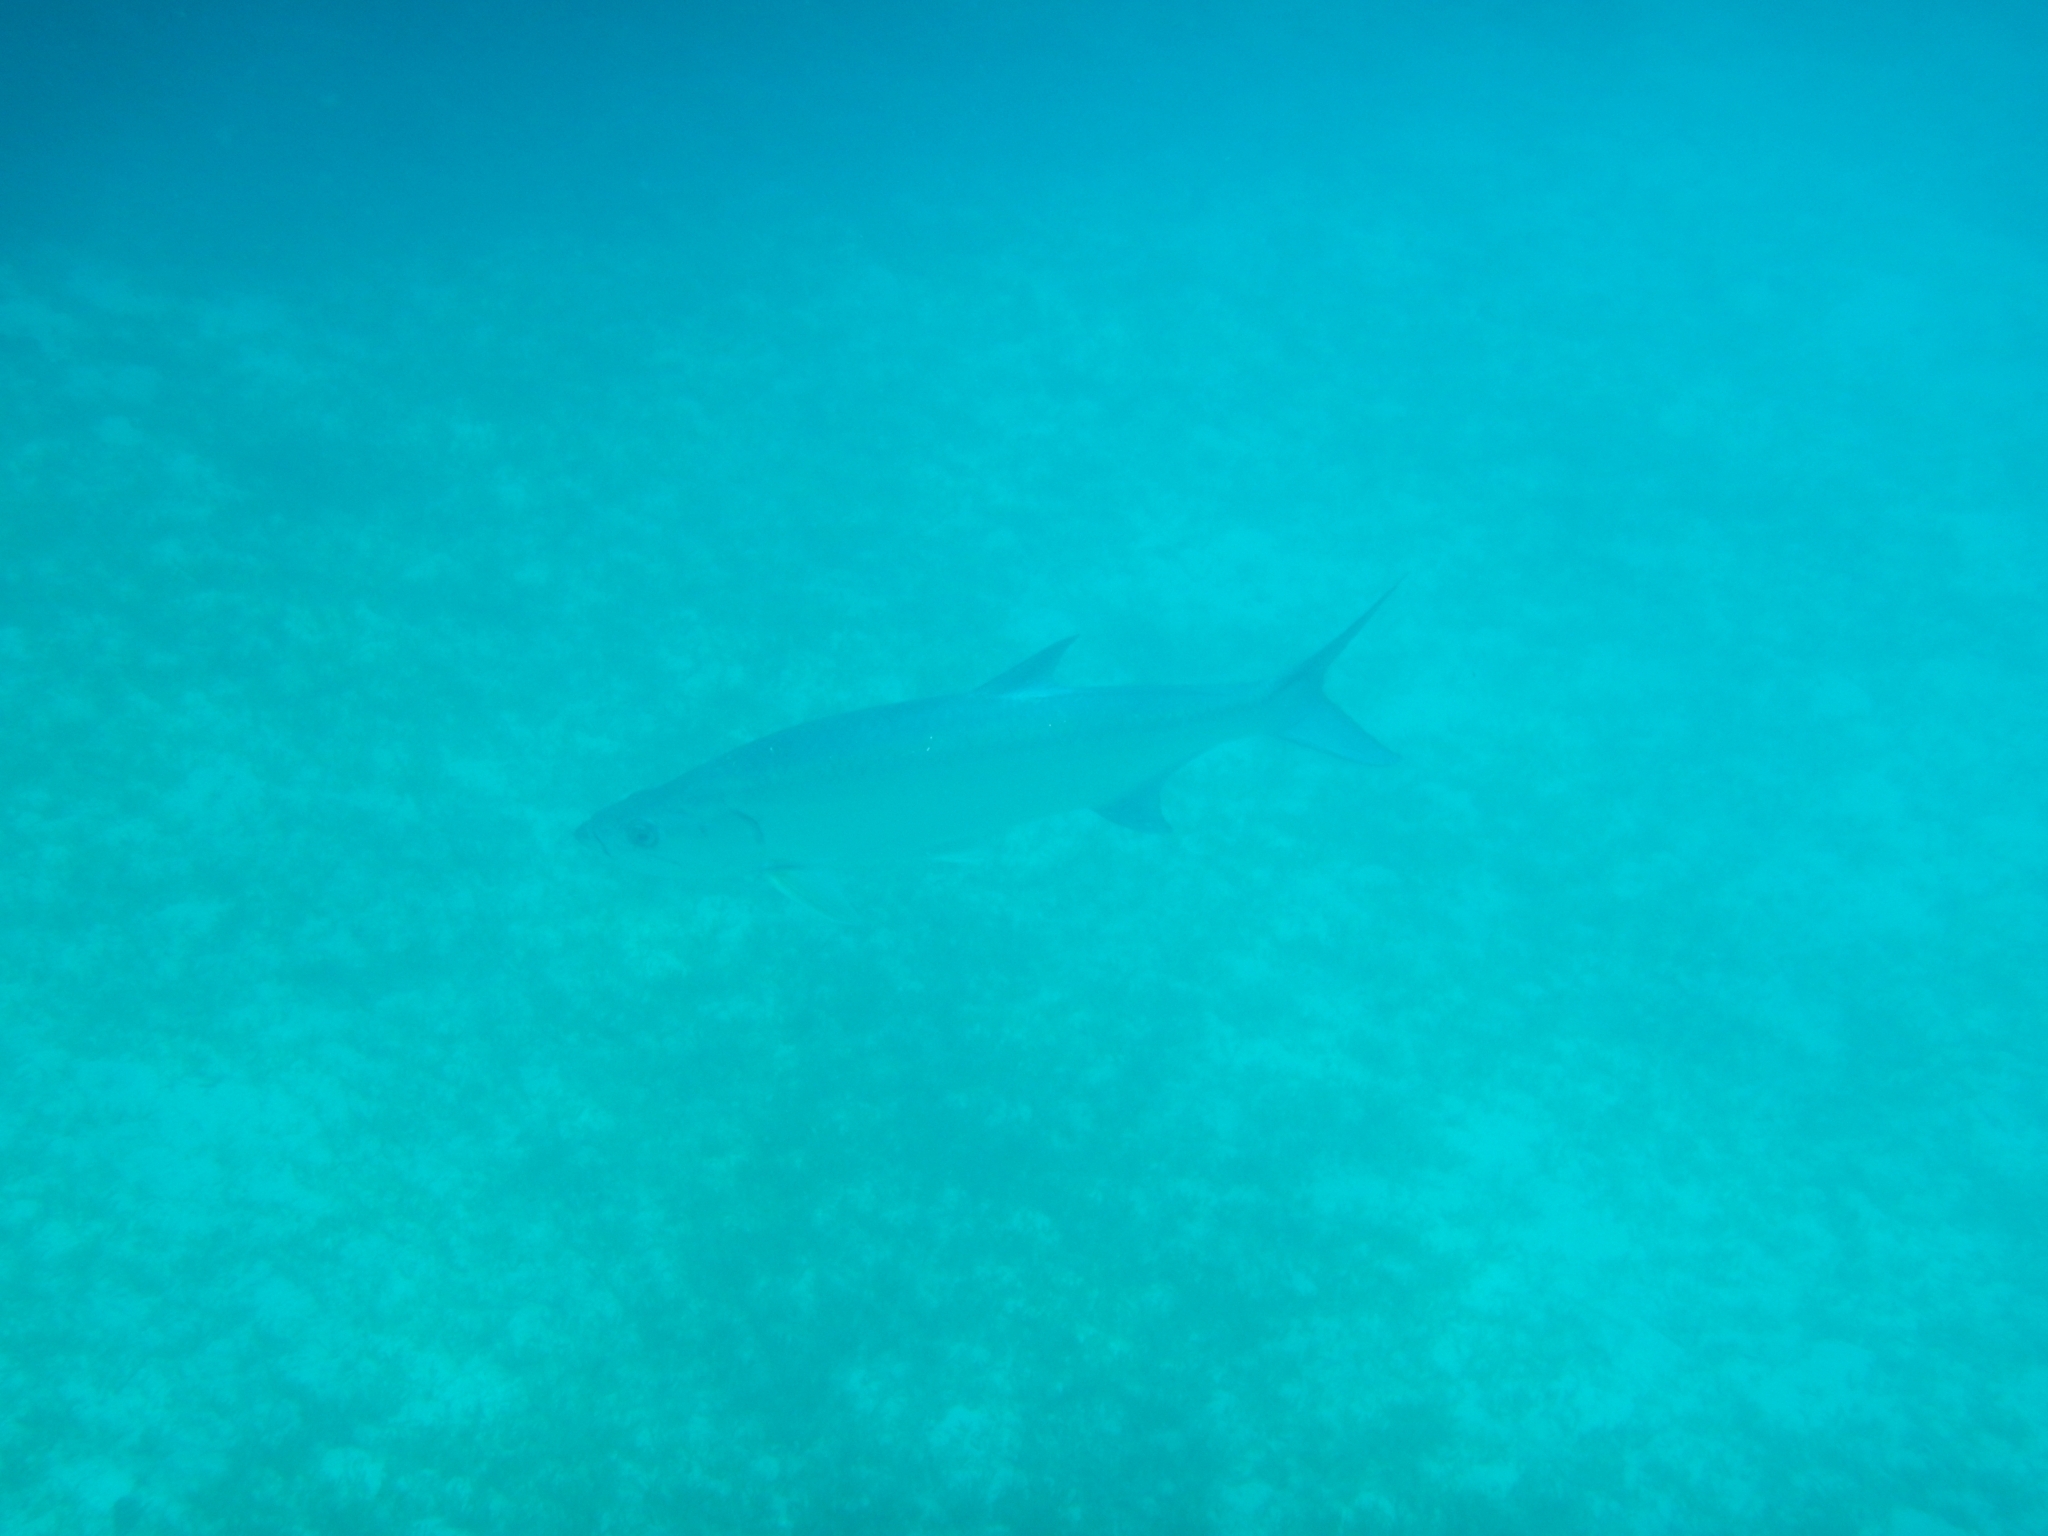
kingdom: Animalia
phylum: Chordata
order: Elopiformes
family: Megalopidae
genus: Megalops
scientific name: Megalops atlanticus
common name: Tarpon
